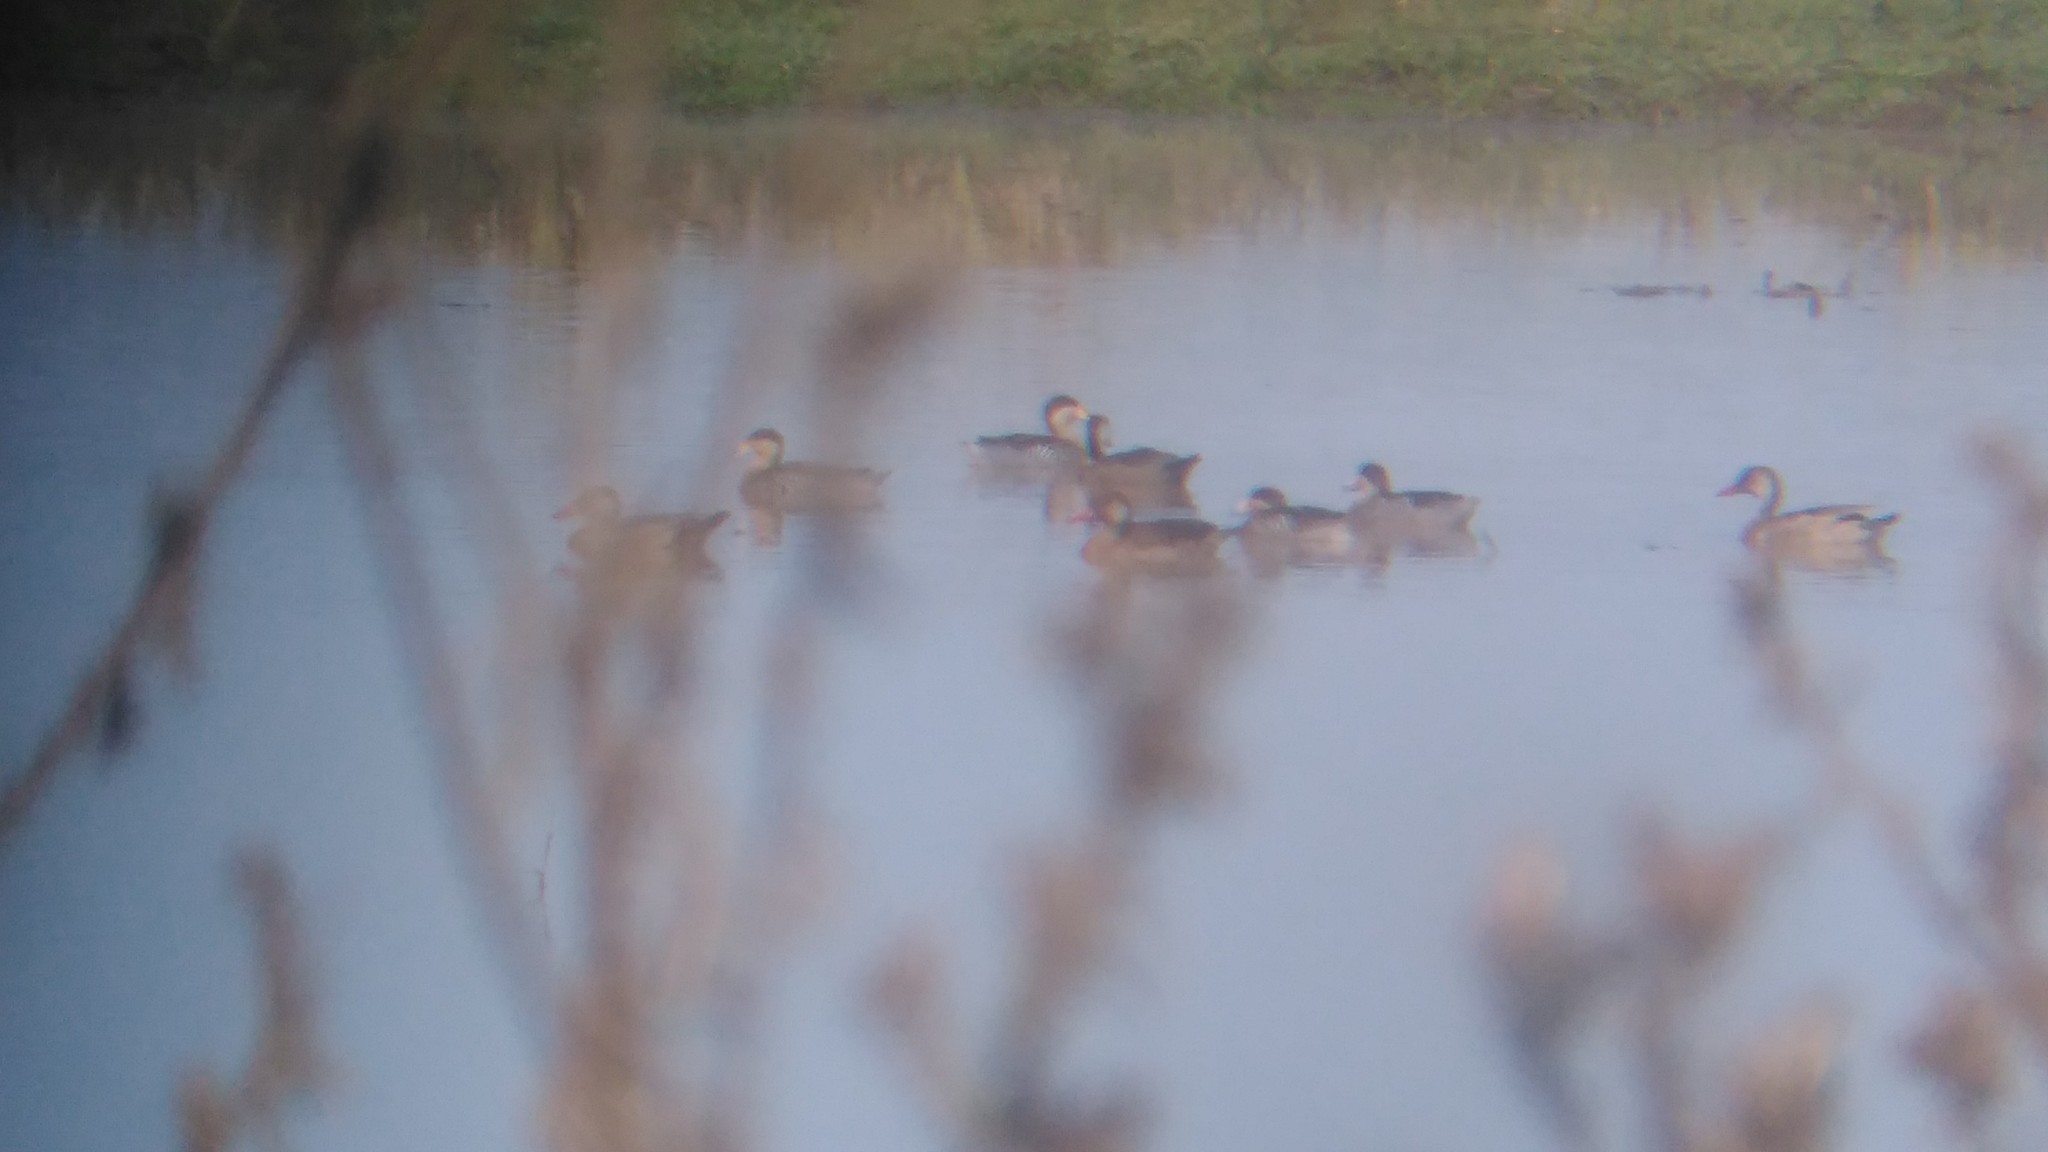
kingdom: Animalia
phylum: Chordata
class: Aves
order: Anseriformes
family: Anatidae
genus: Spatula
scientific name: Spatula versicolor
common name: Silver teal
